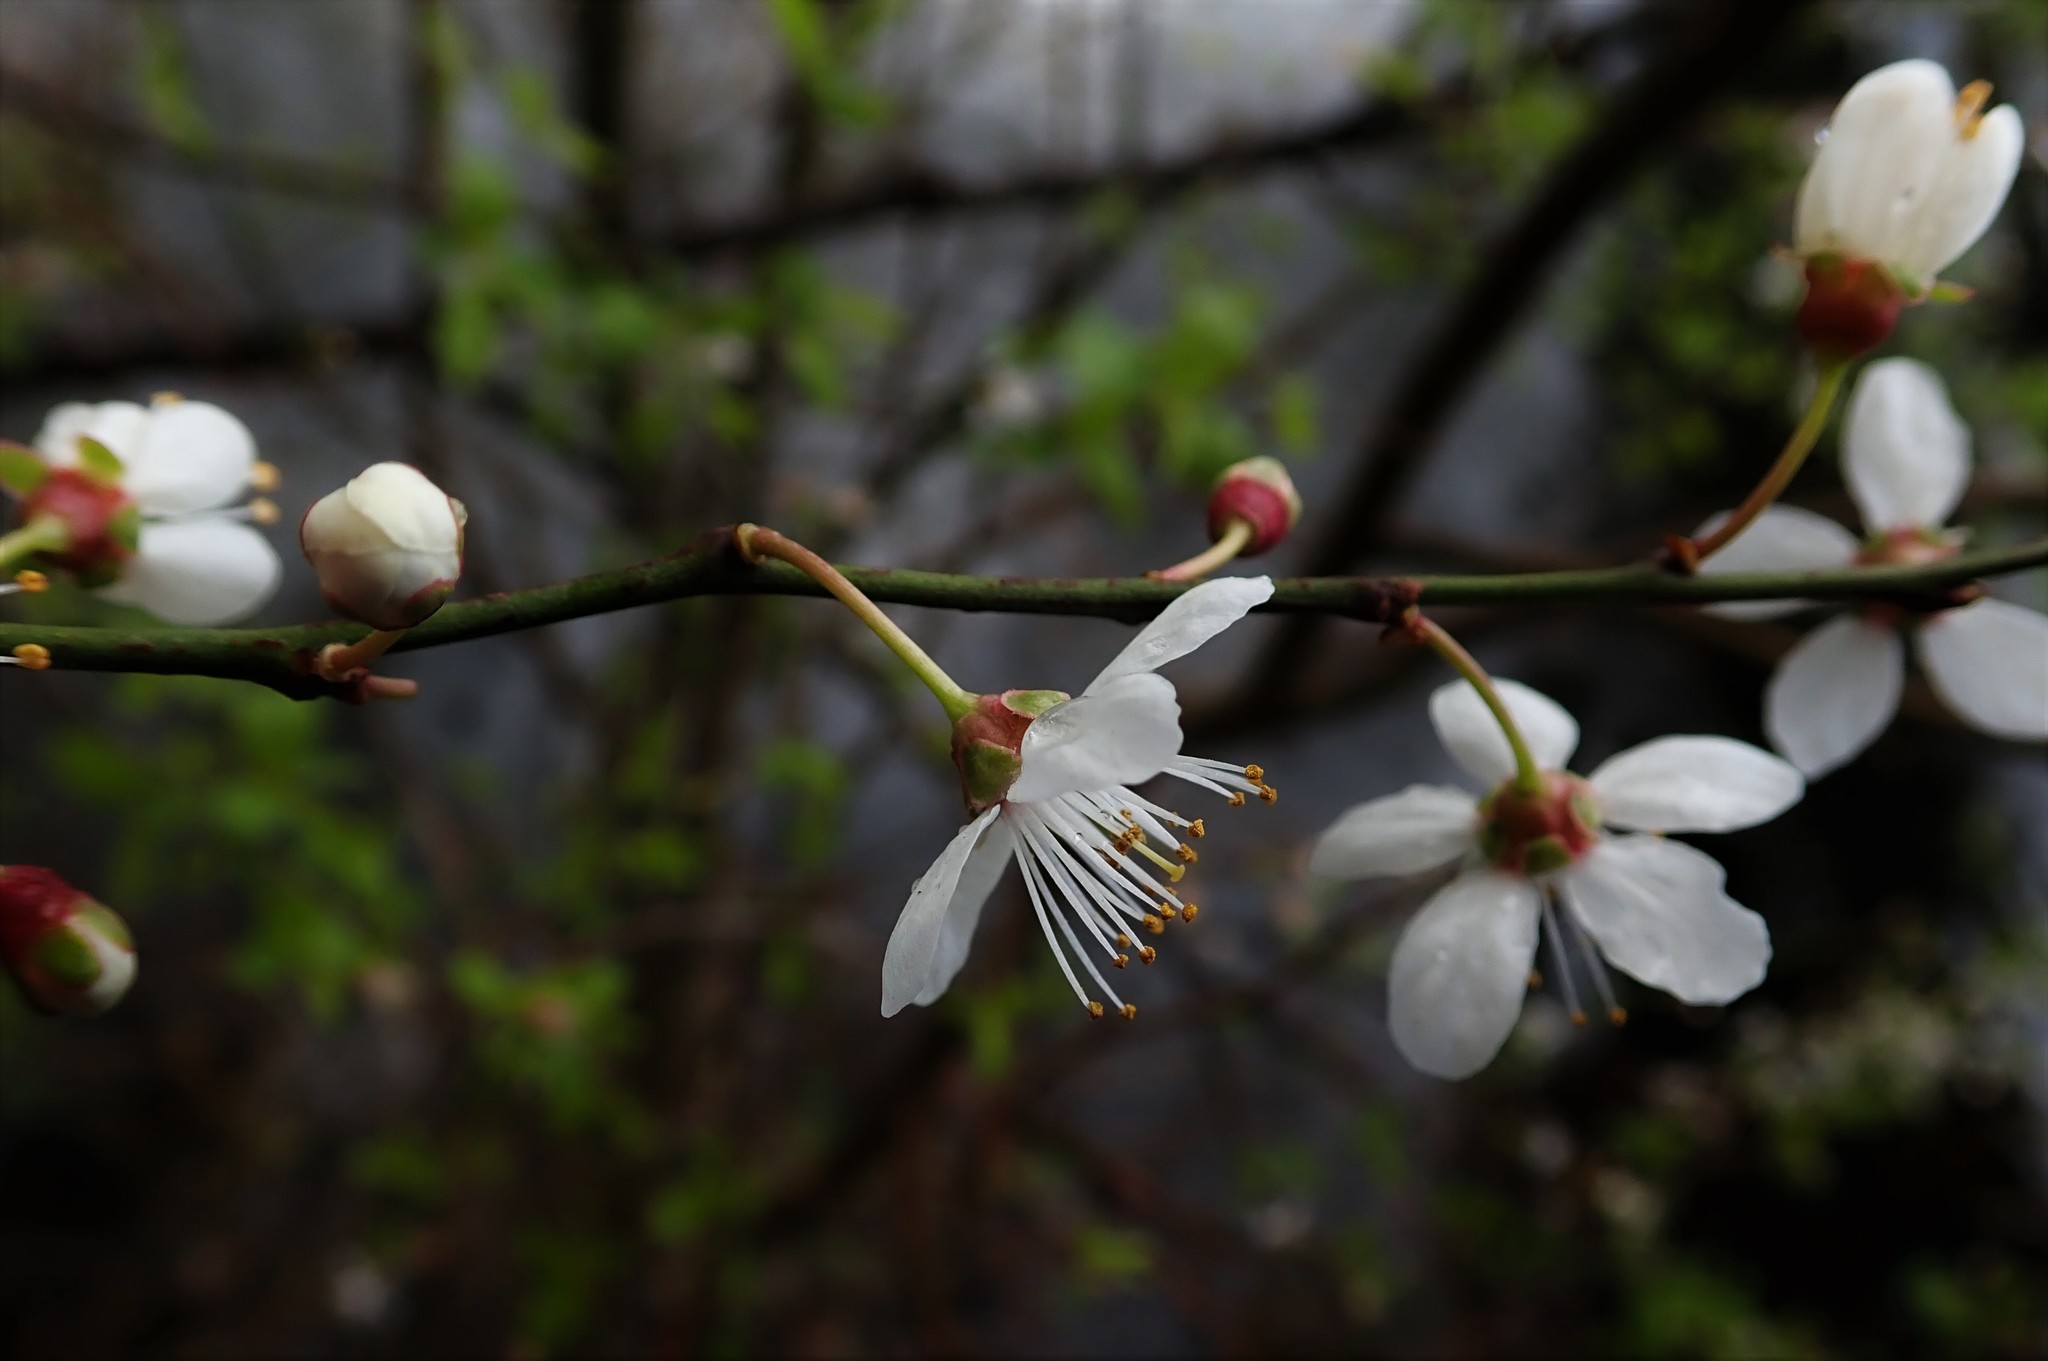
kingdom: Plantae
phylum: Tracheophyta
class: Magnoliopsida
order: Rosales
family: Rosaceae
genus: Prunus
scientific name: Prunus cerasifera
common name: Cherry plum
